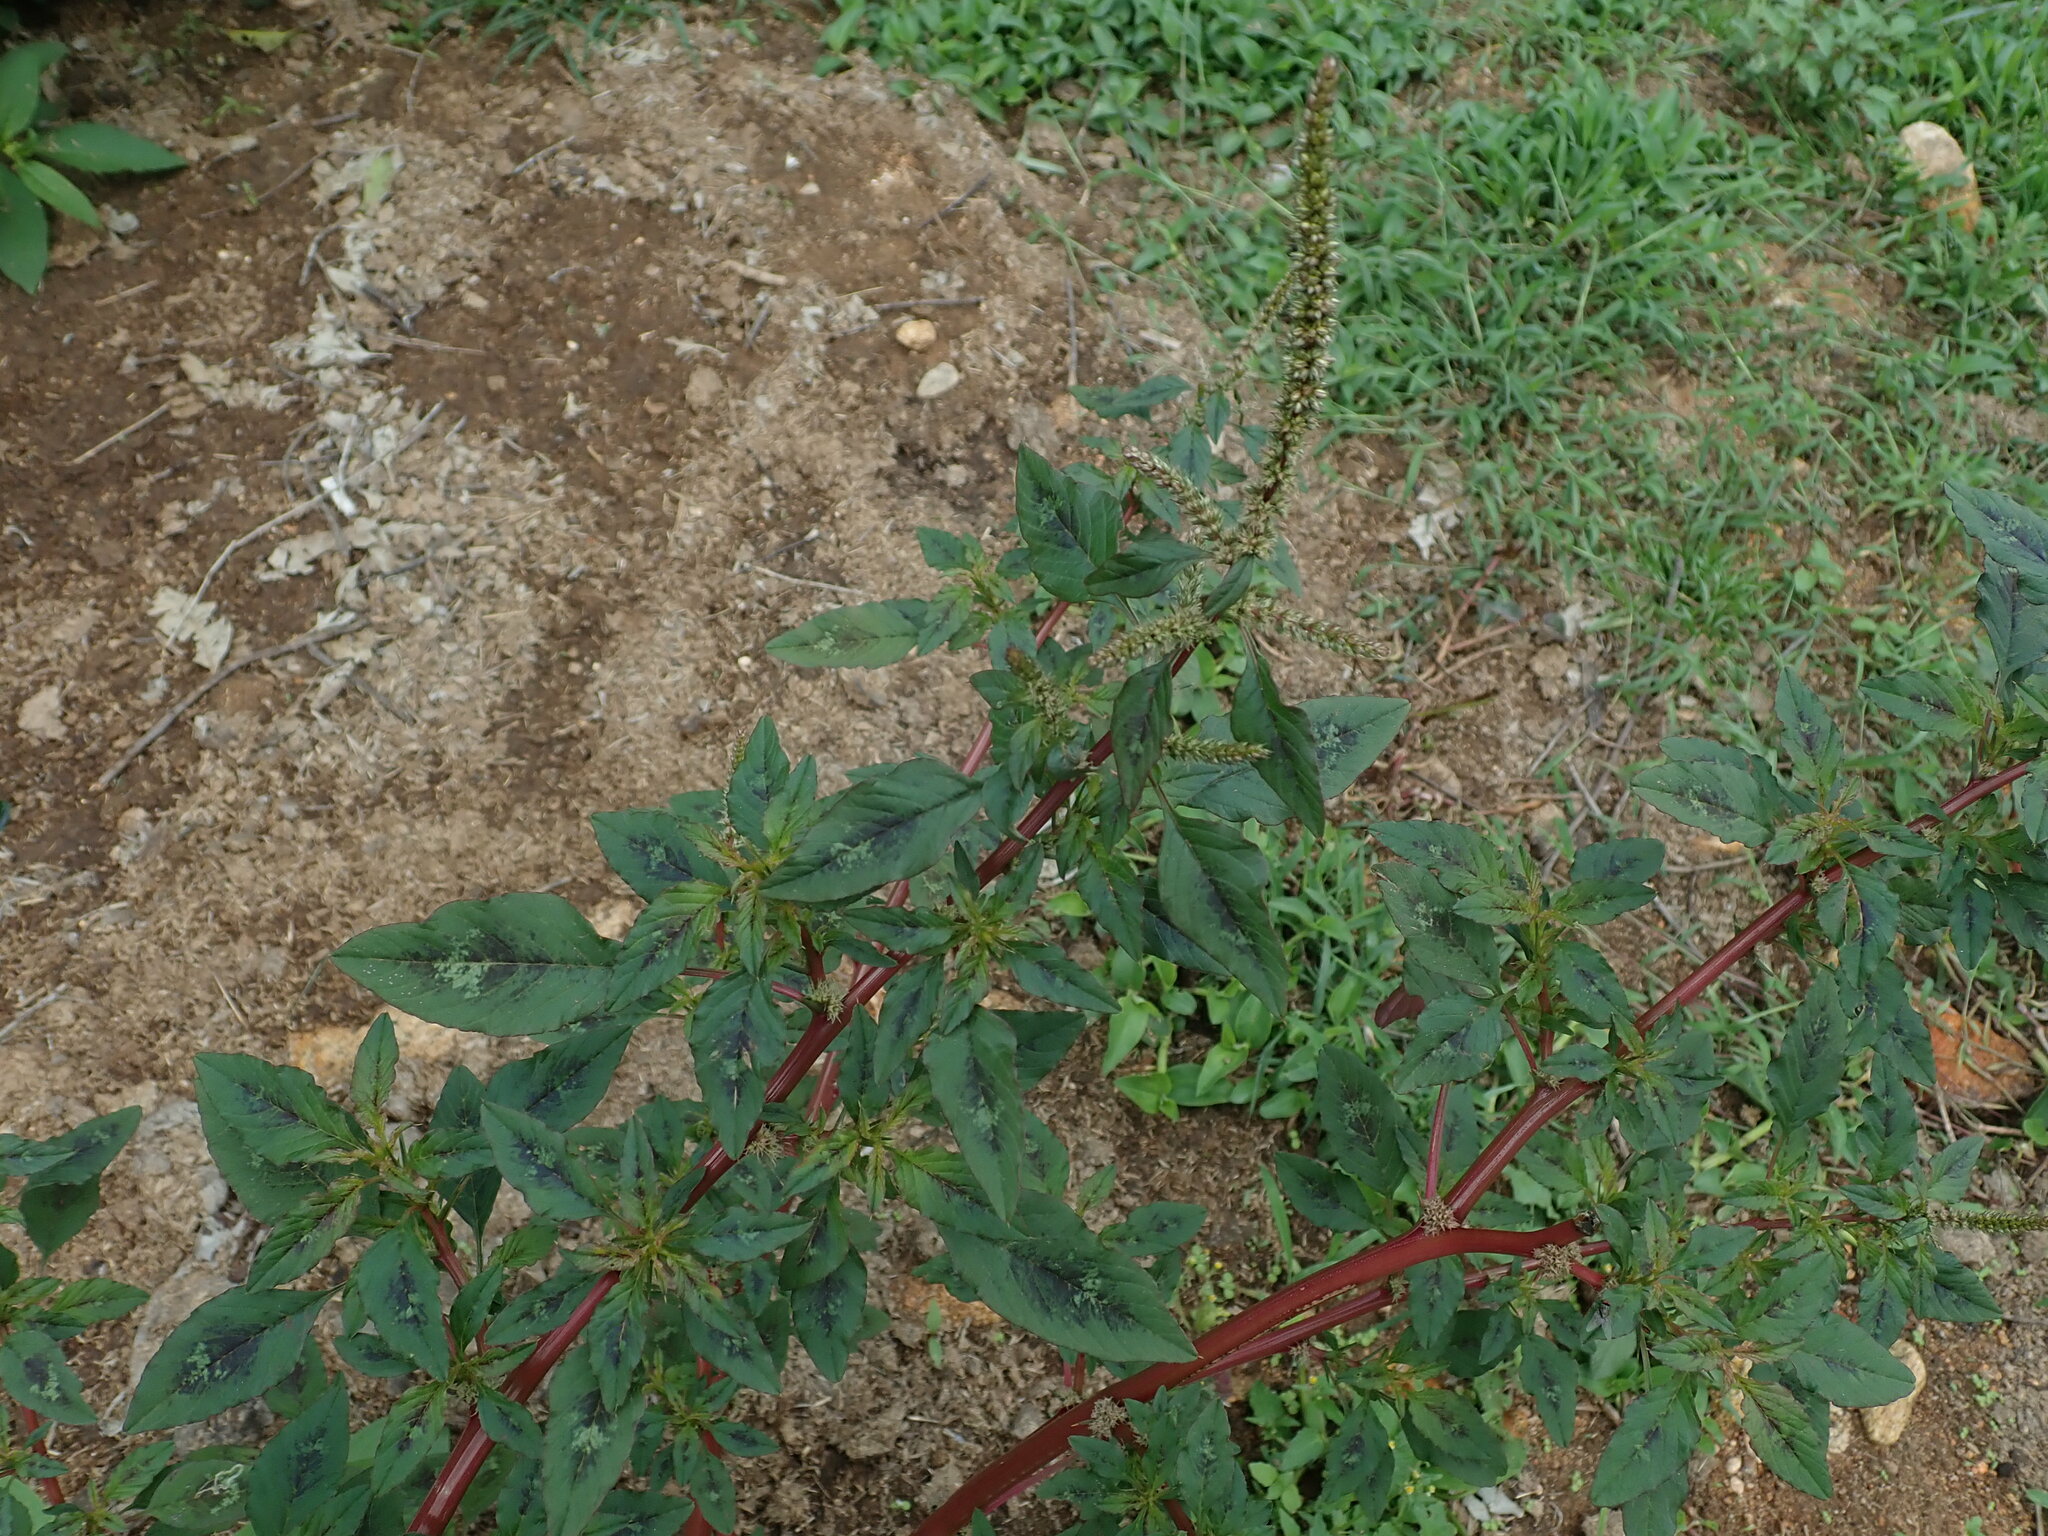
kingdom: Plantae
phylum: Tracheophyta
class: Magnoliopsida
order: Caryophyllales
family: Amaranthaceae
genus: Amaranthus
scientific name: Amaranthus spinosus
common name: Spiny amaranth
